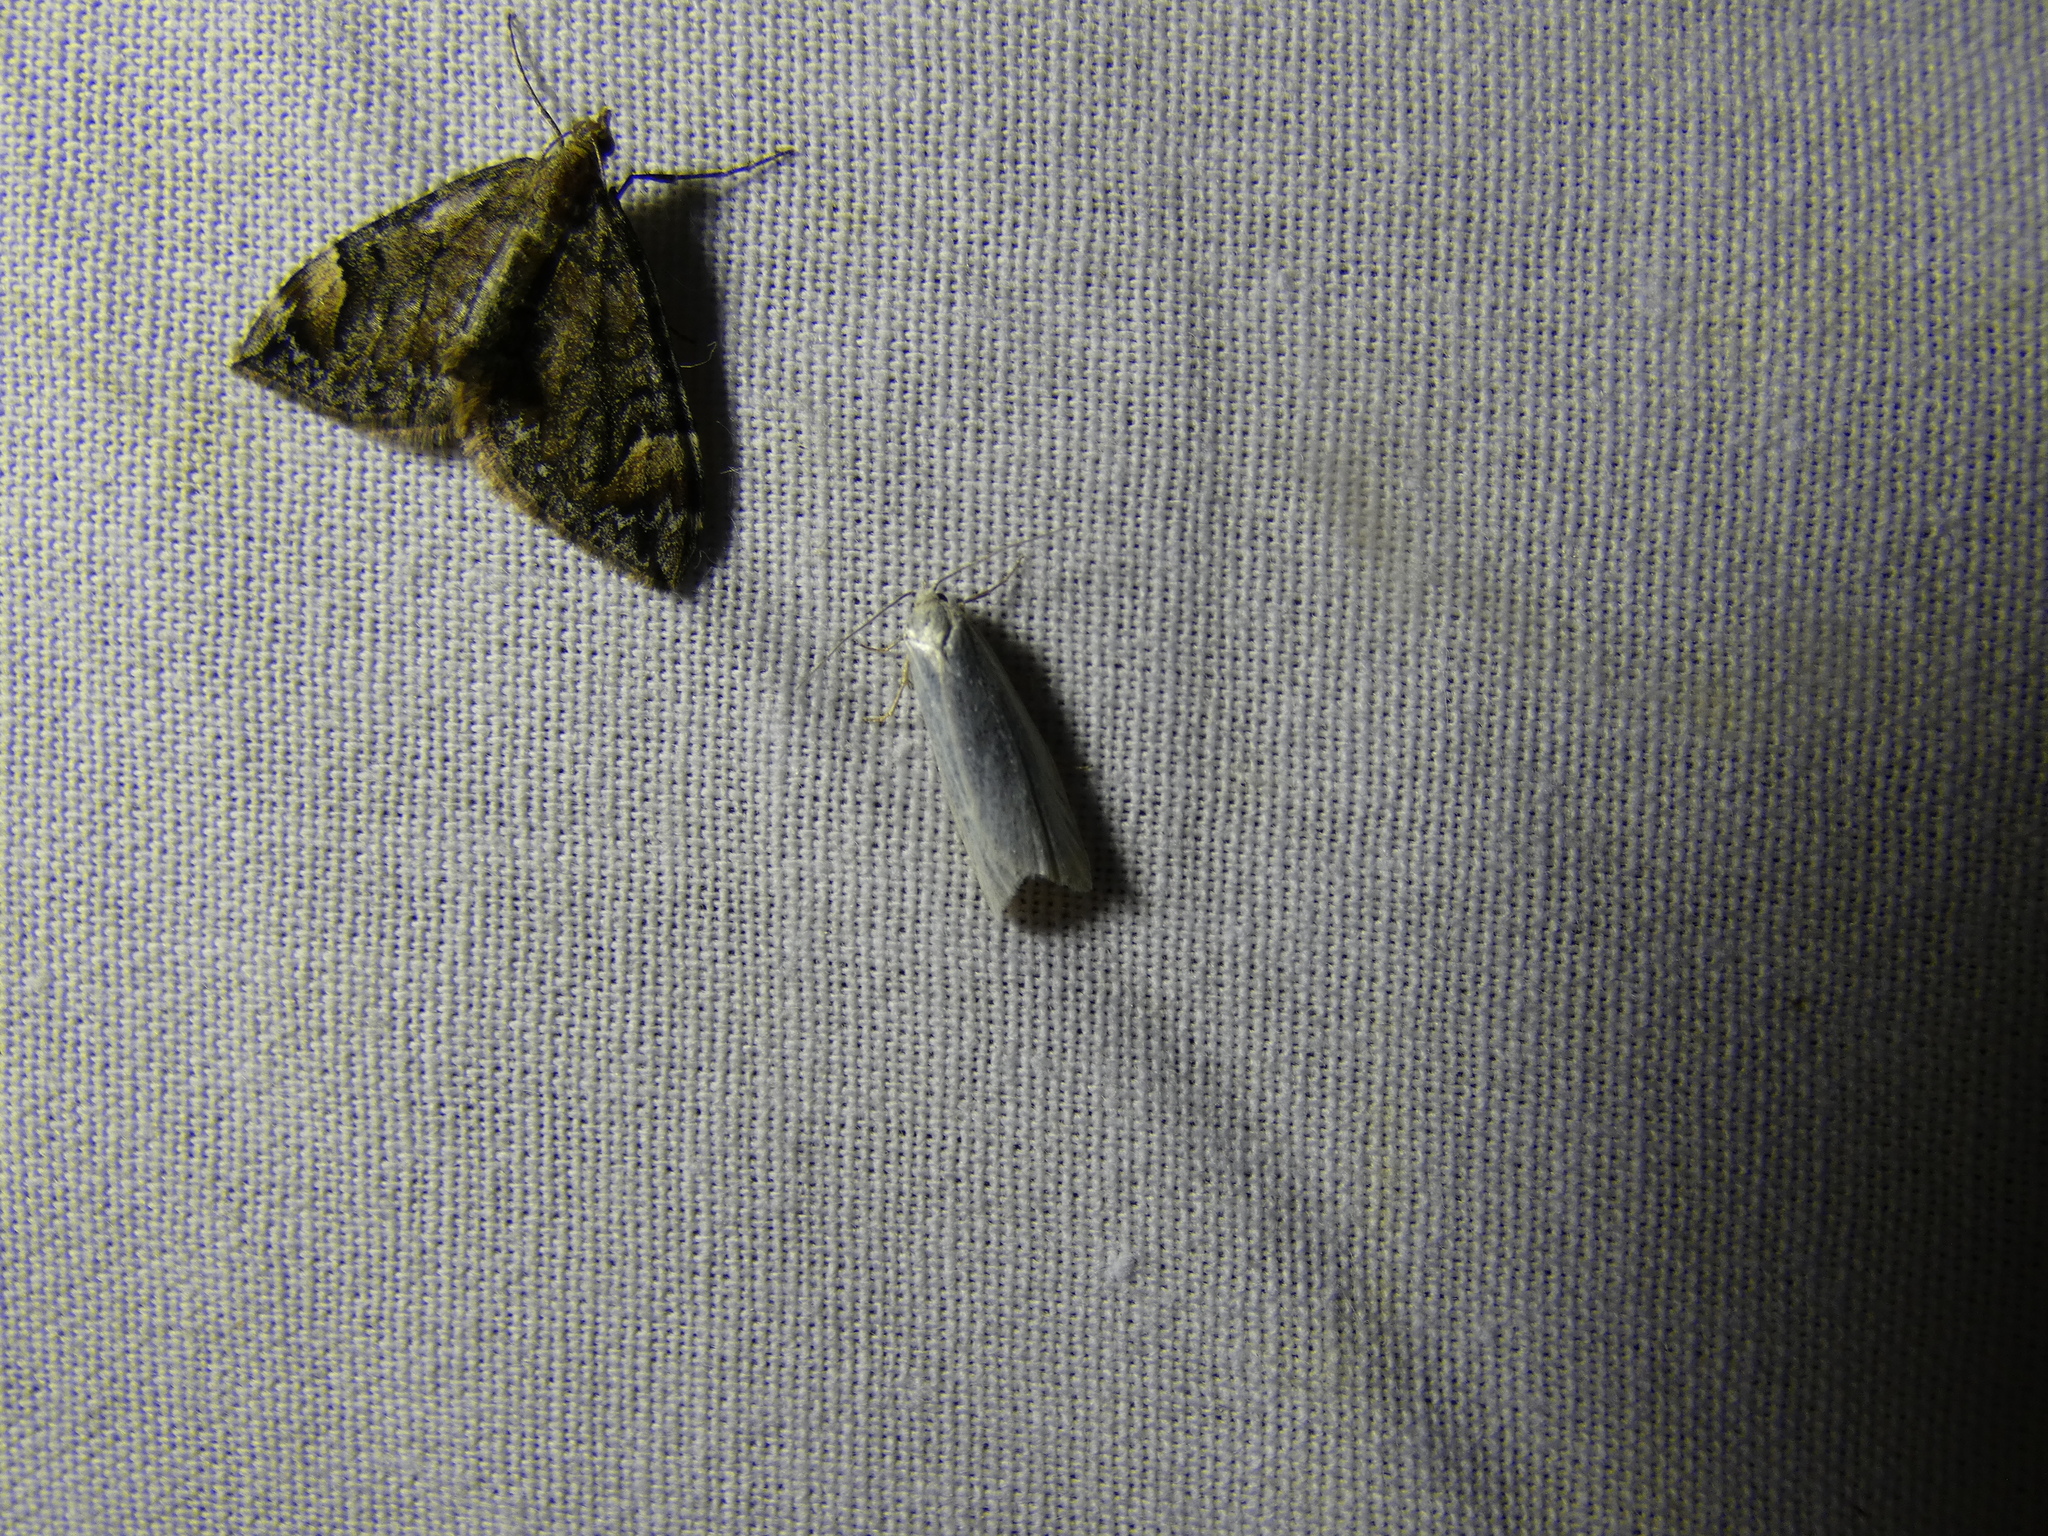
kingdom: Animalia
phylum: Arthropoda
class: Insecta
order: Lepidoptera
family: Geometridae
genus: Dysstroma
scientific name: Dysstroma citrata
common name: Dark marbled carpet
